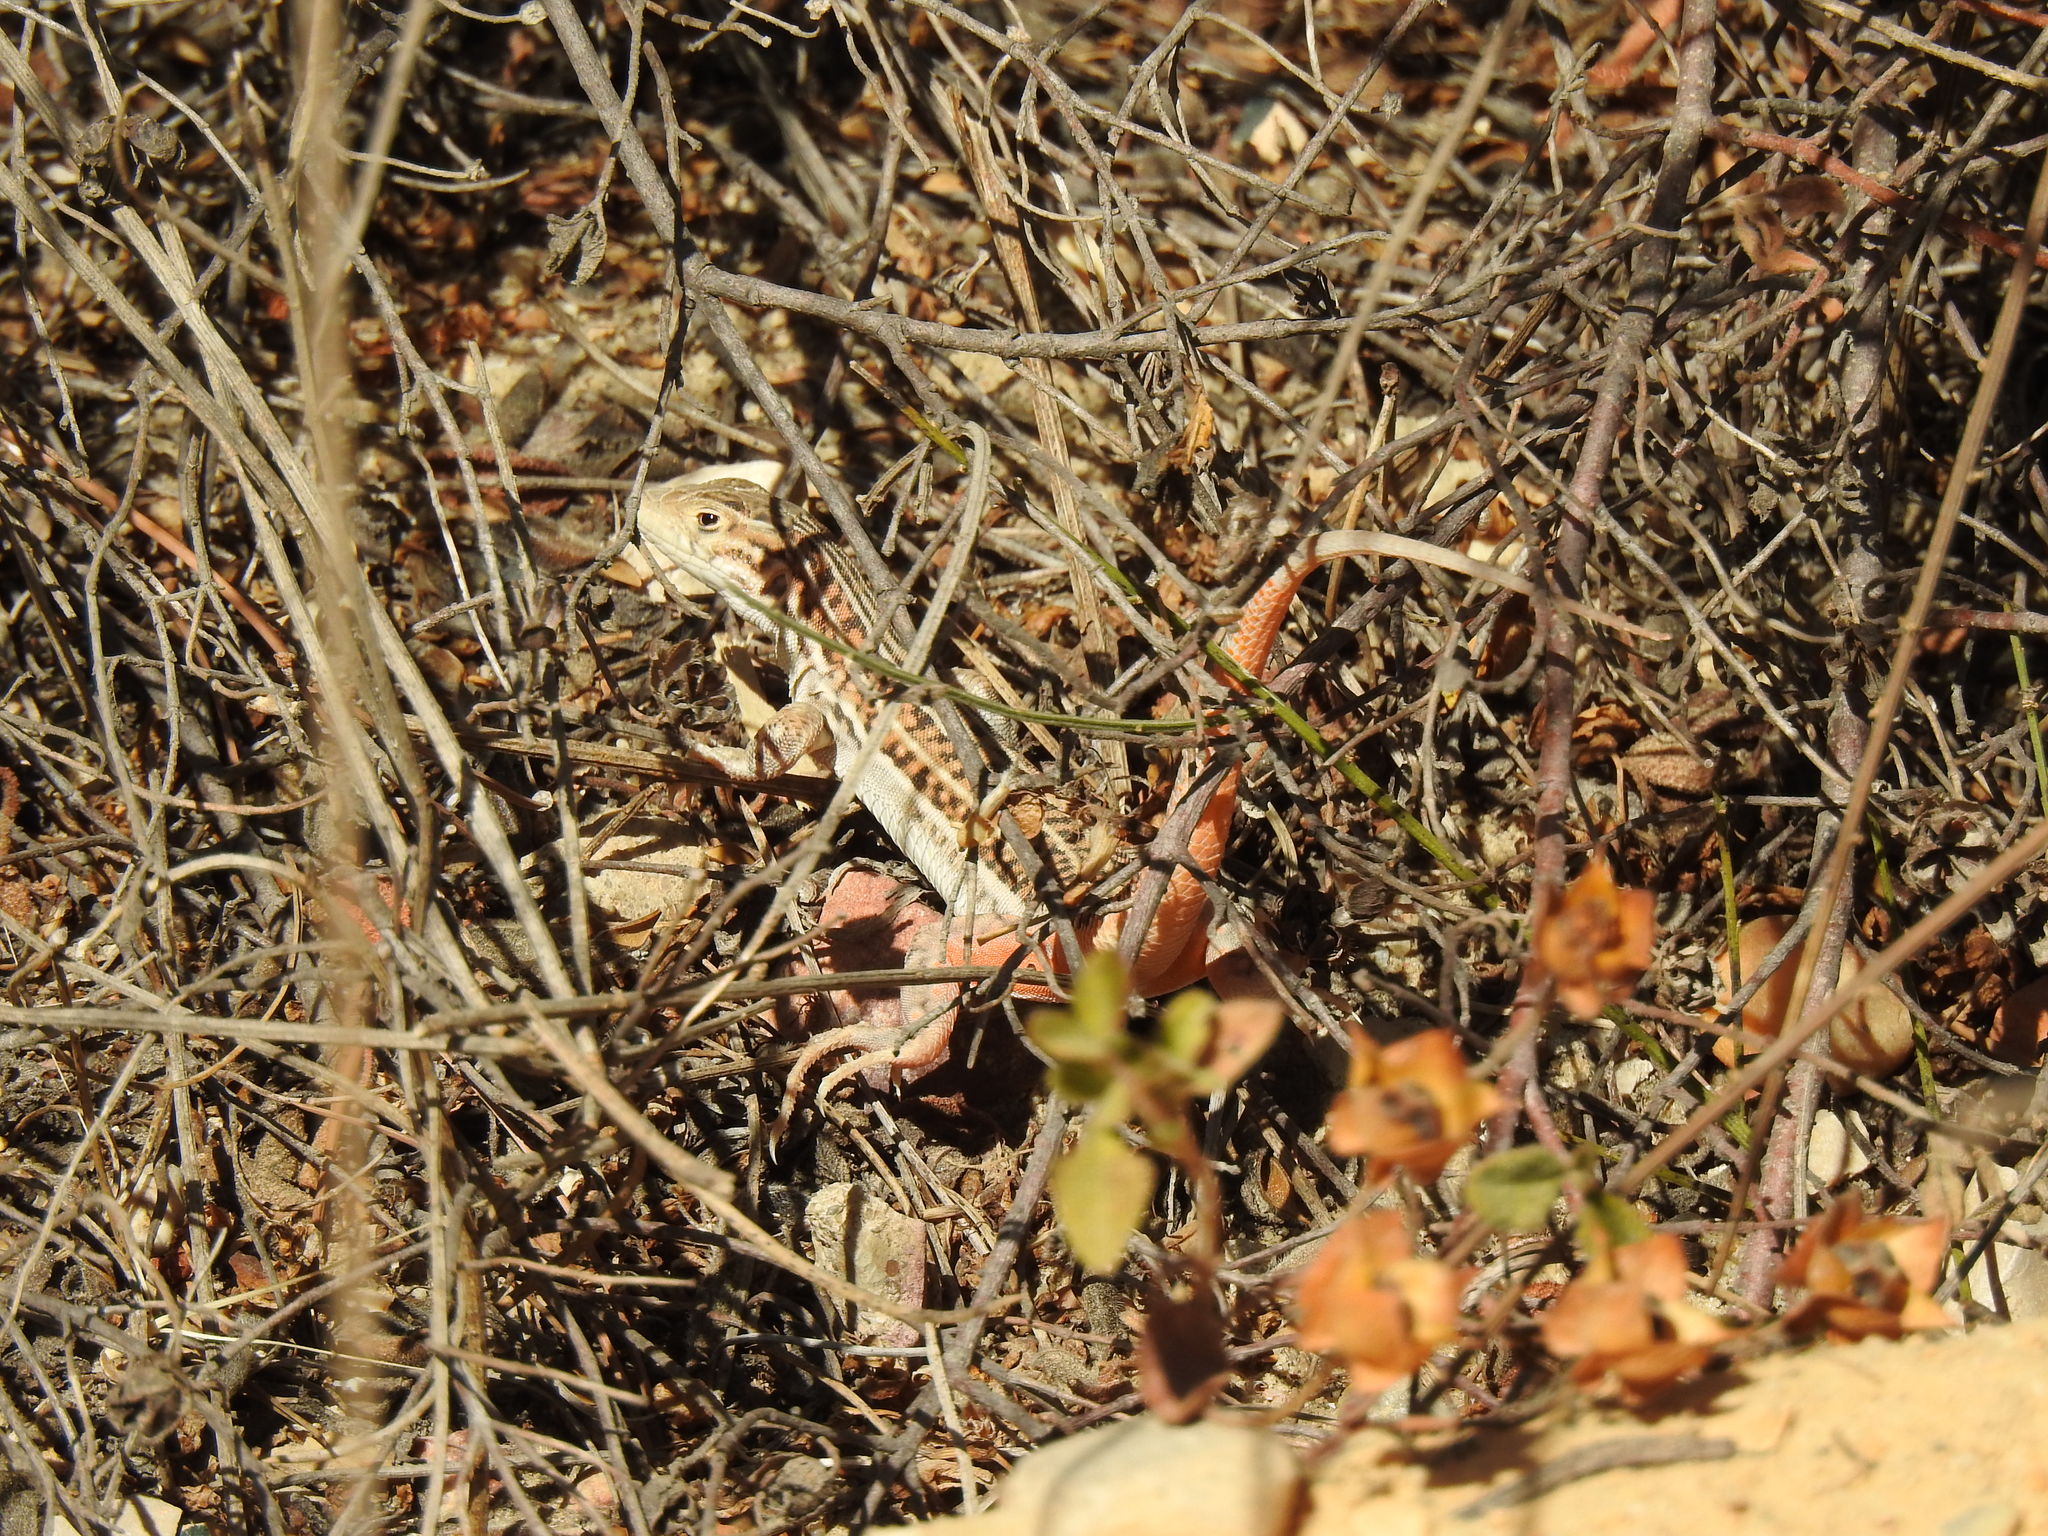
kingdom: Animalia
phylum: Chordata
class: Squamata
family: Lacertidae
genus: Acanthodactylus
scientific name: Acanthodactylus erythrurus
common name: Spiny-footed lizard
